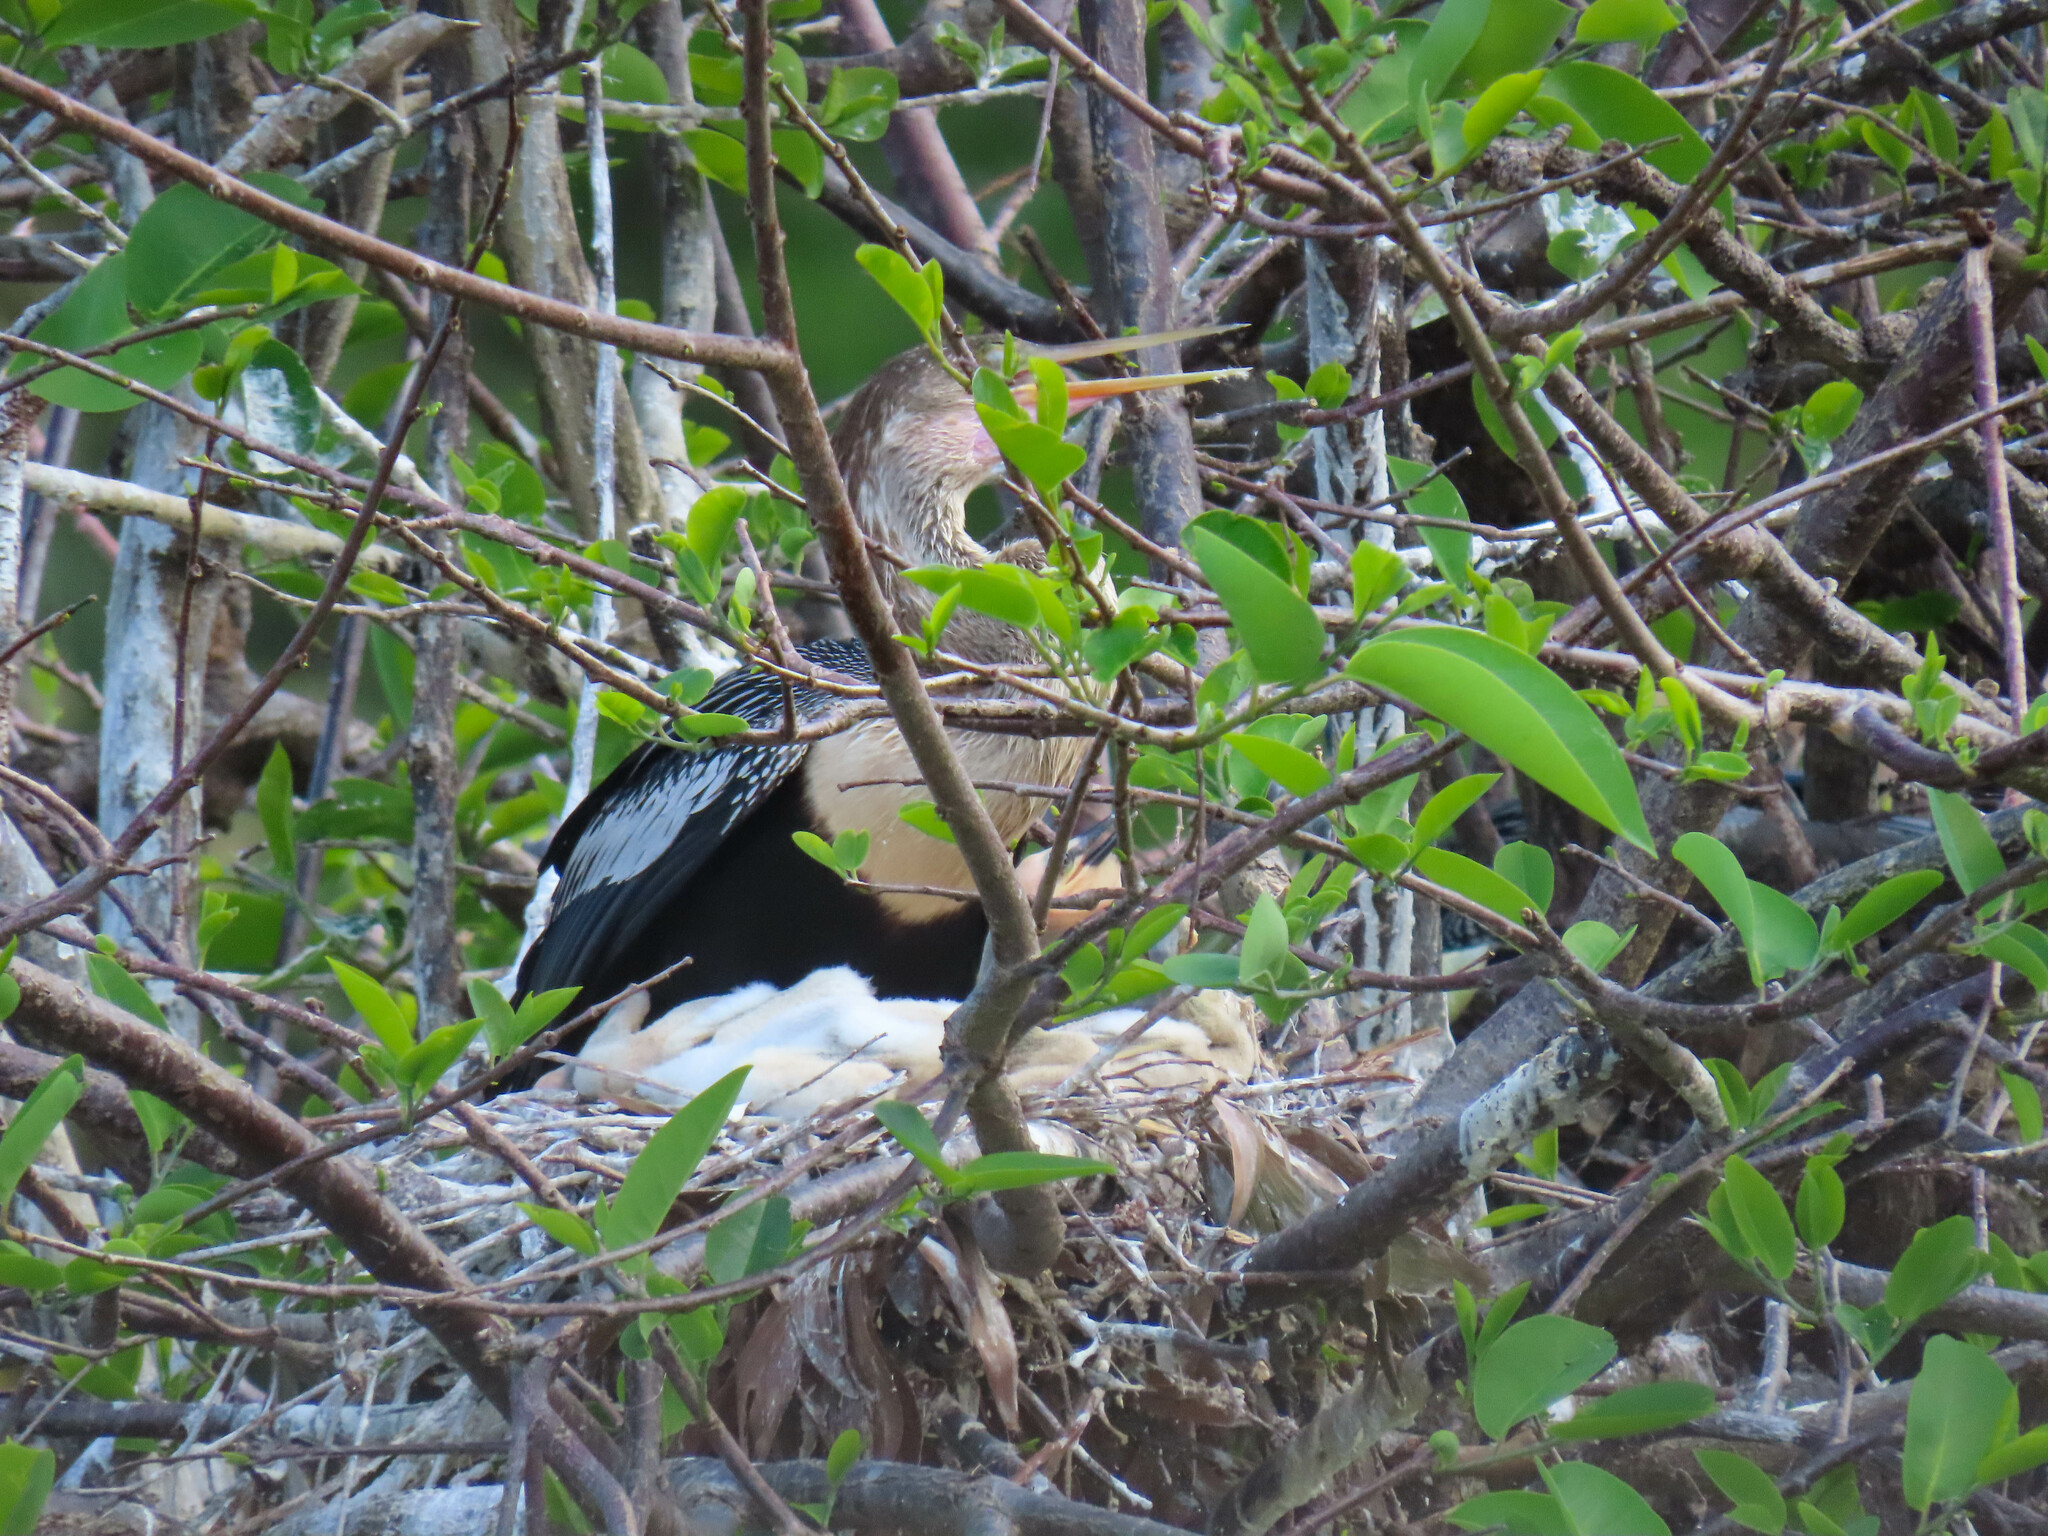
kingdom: Animalia
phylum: Chordata
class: Aves
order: Suliformes
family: Anhingidae
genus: Anhinga
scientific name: Anhinga anhinga
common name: Anhinga
